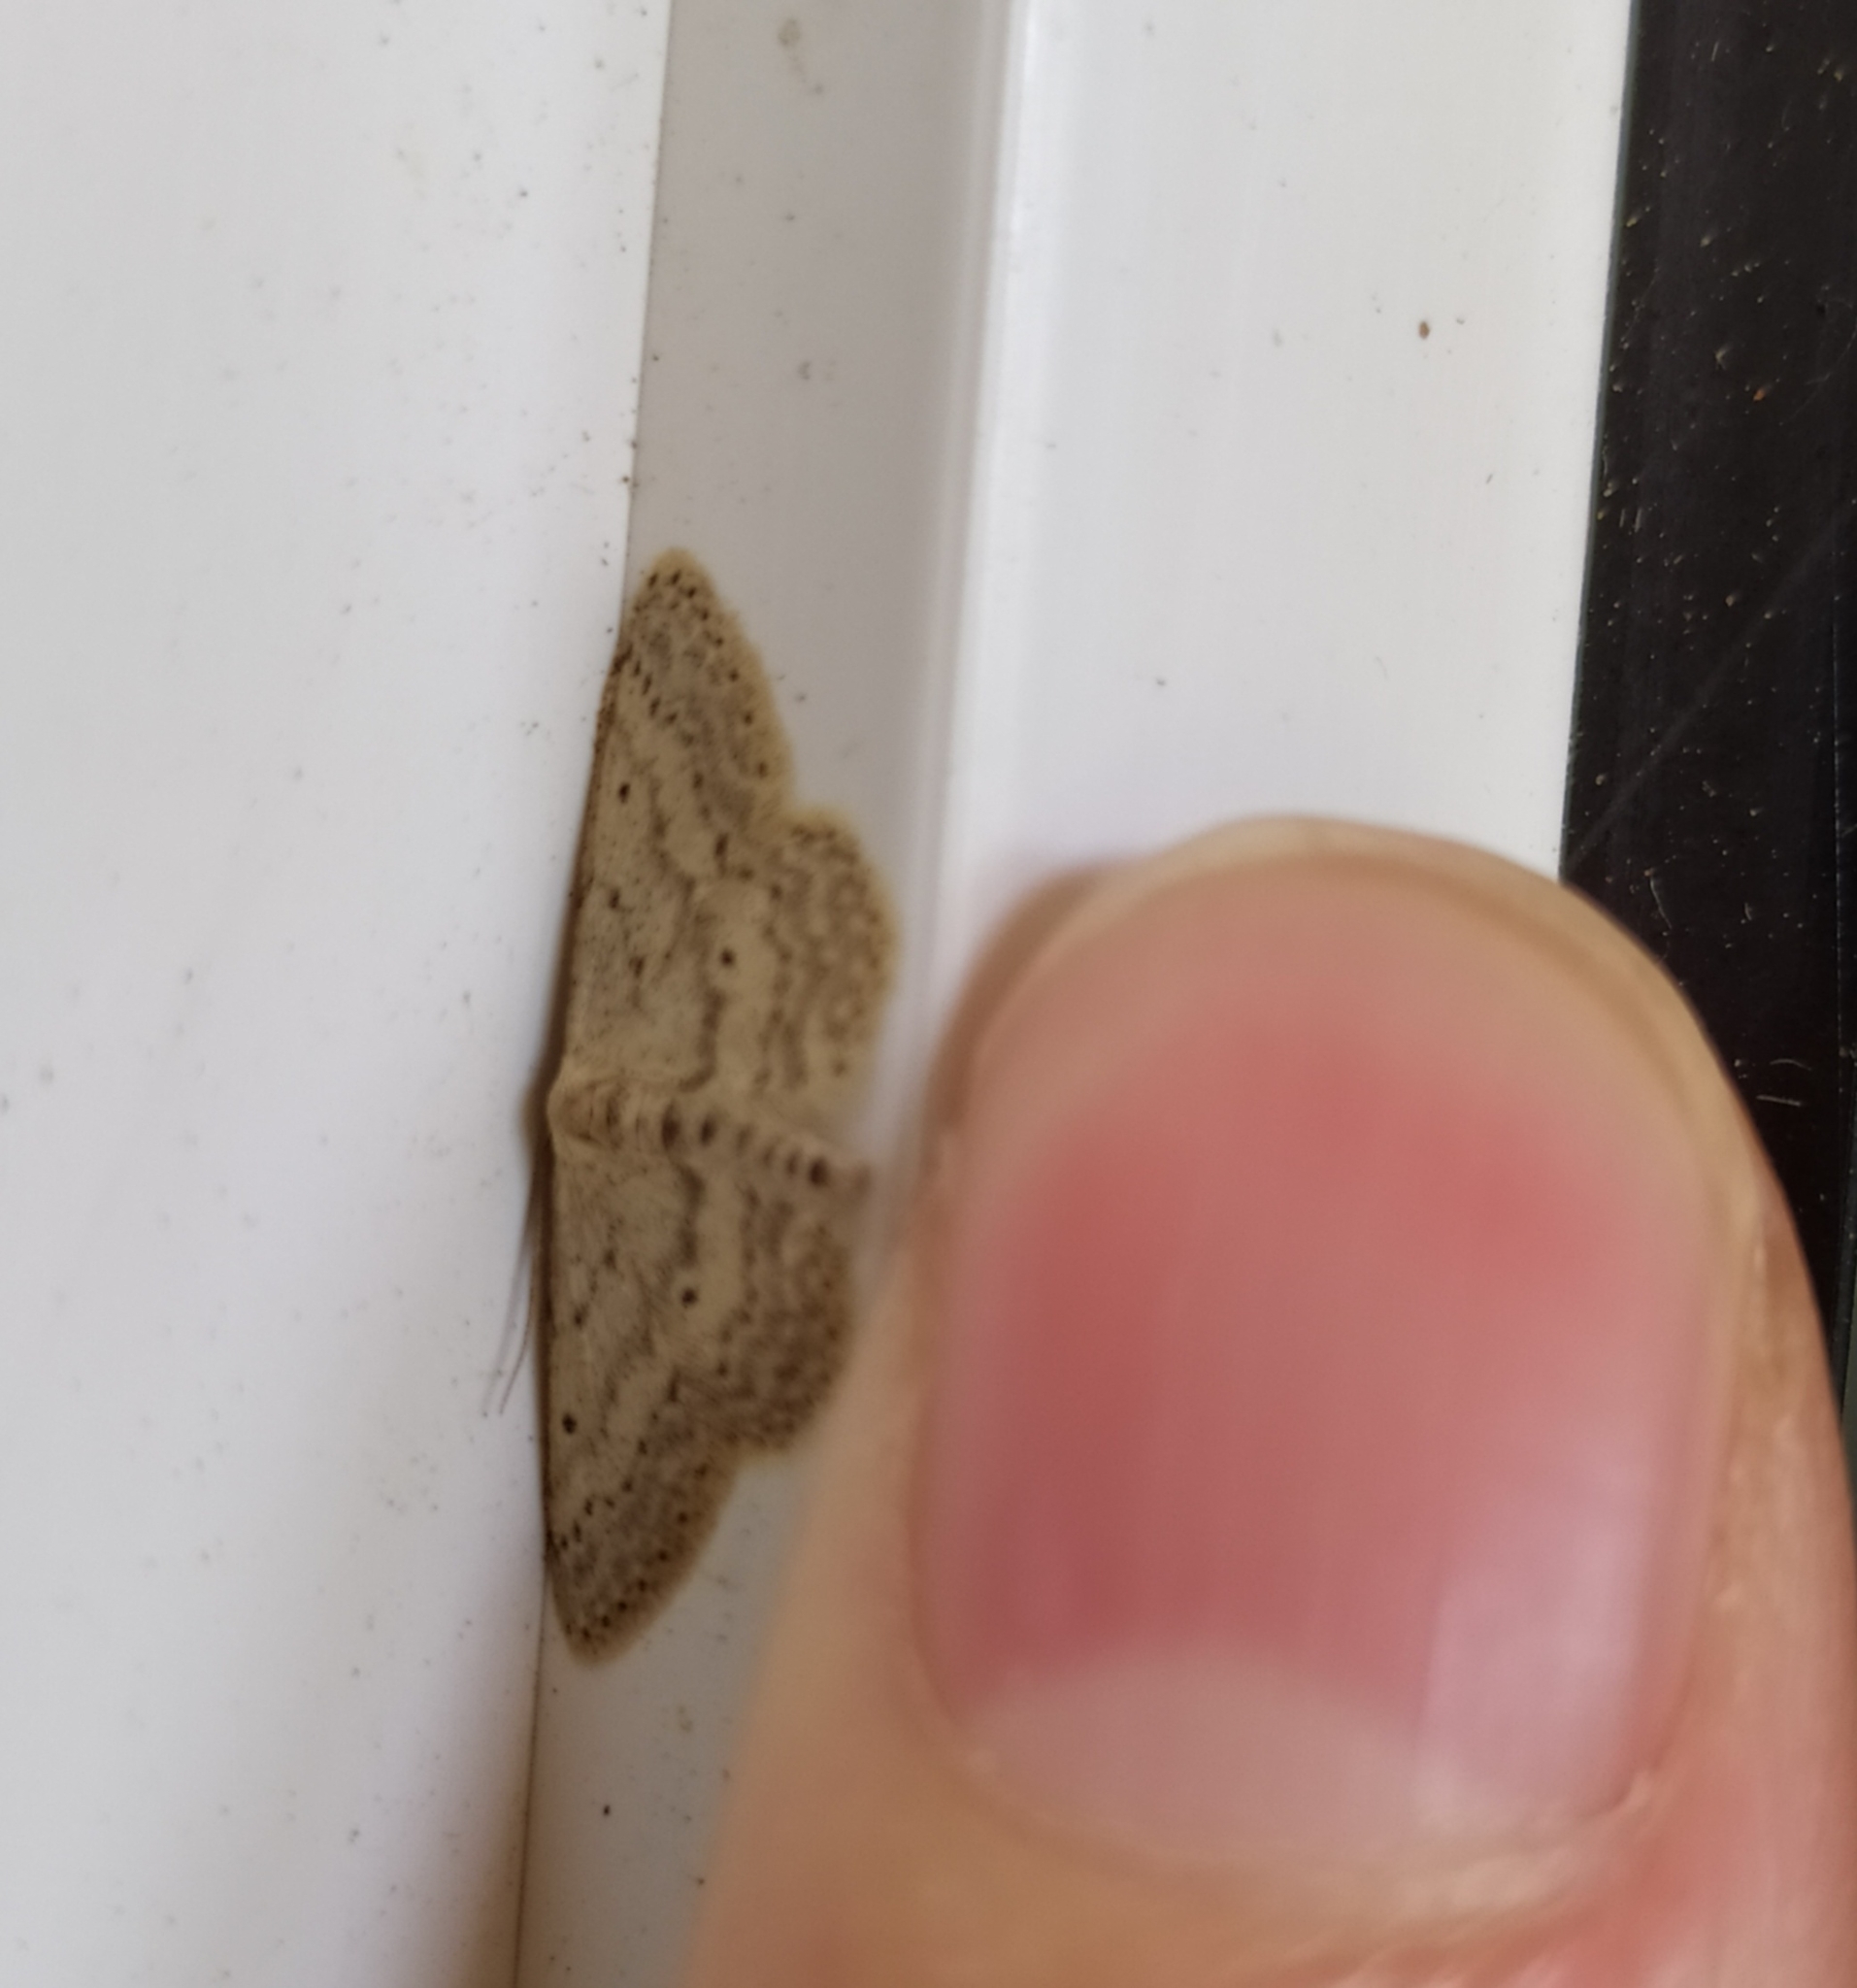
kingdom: Animalia
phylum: Arthropoda
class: Insecta
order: Lepidoptera
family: Geometridae
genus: Idaea
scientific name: Idaea seriata
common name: Small dusty wave
